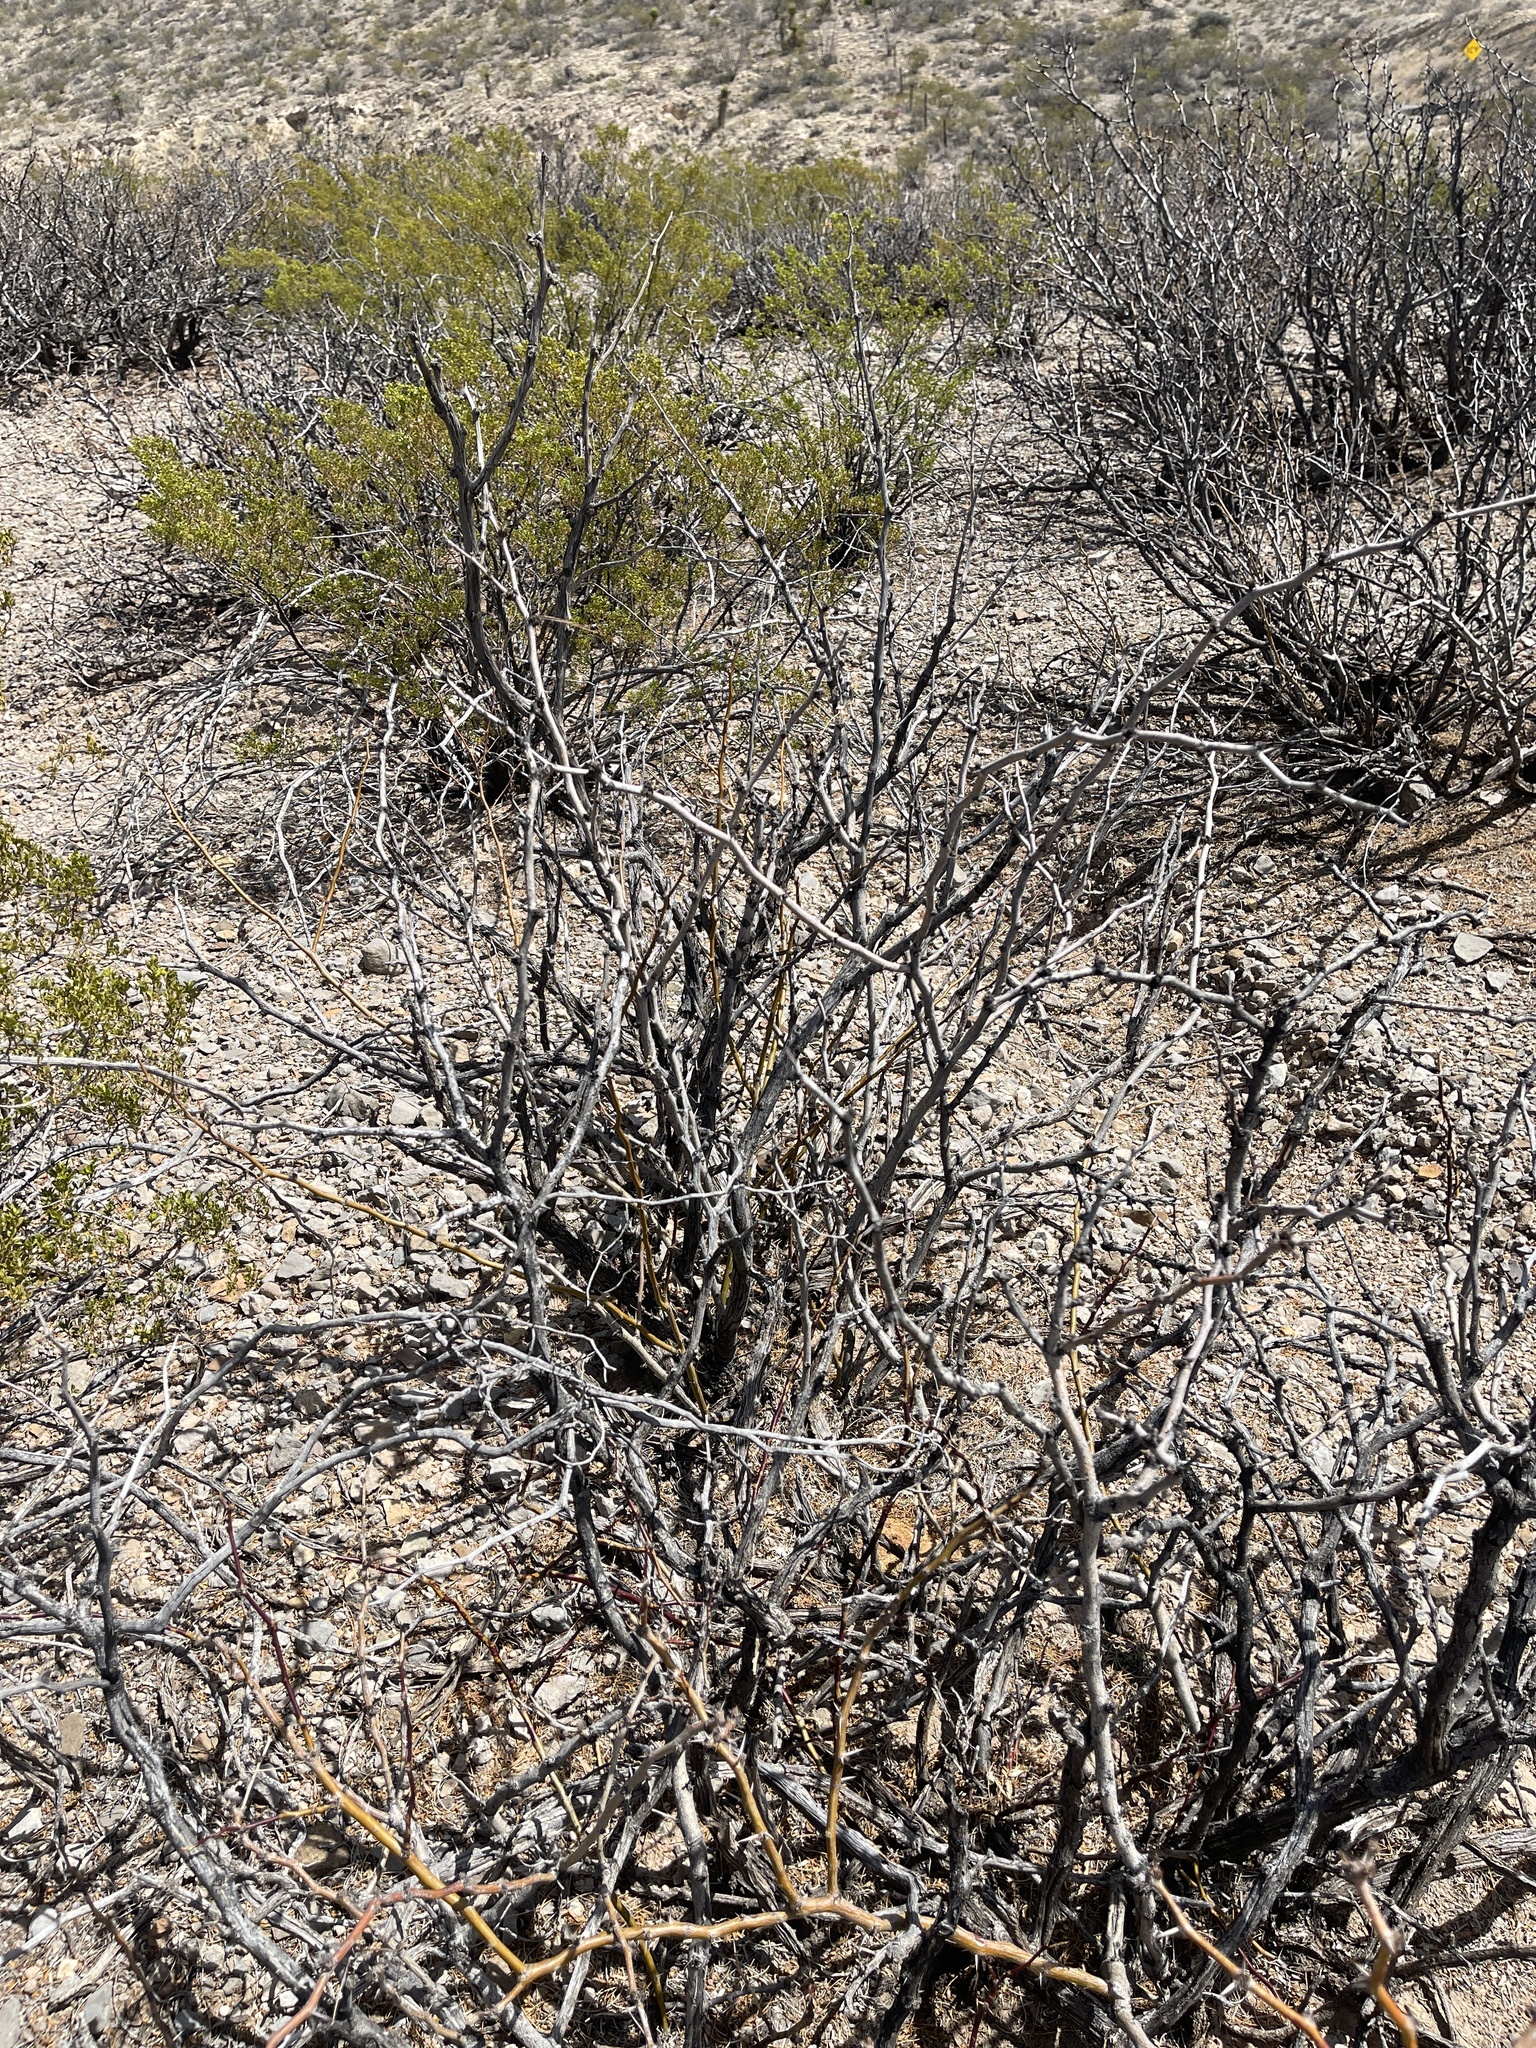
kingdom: Plantae
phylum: Tracheophyta
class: Magnoliopsida
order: Fabales
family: Fabaceae
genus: Prosopis
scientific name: Prosopis glandulosa
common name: Honey mesquite
